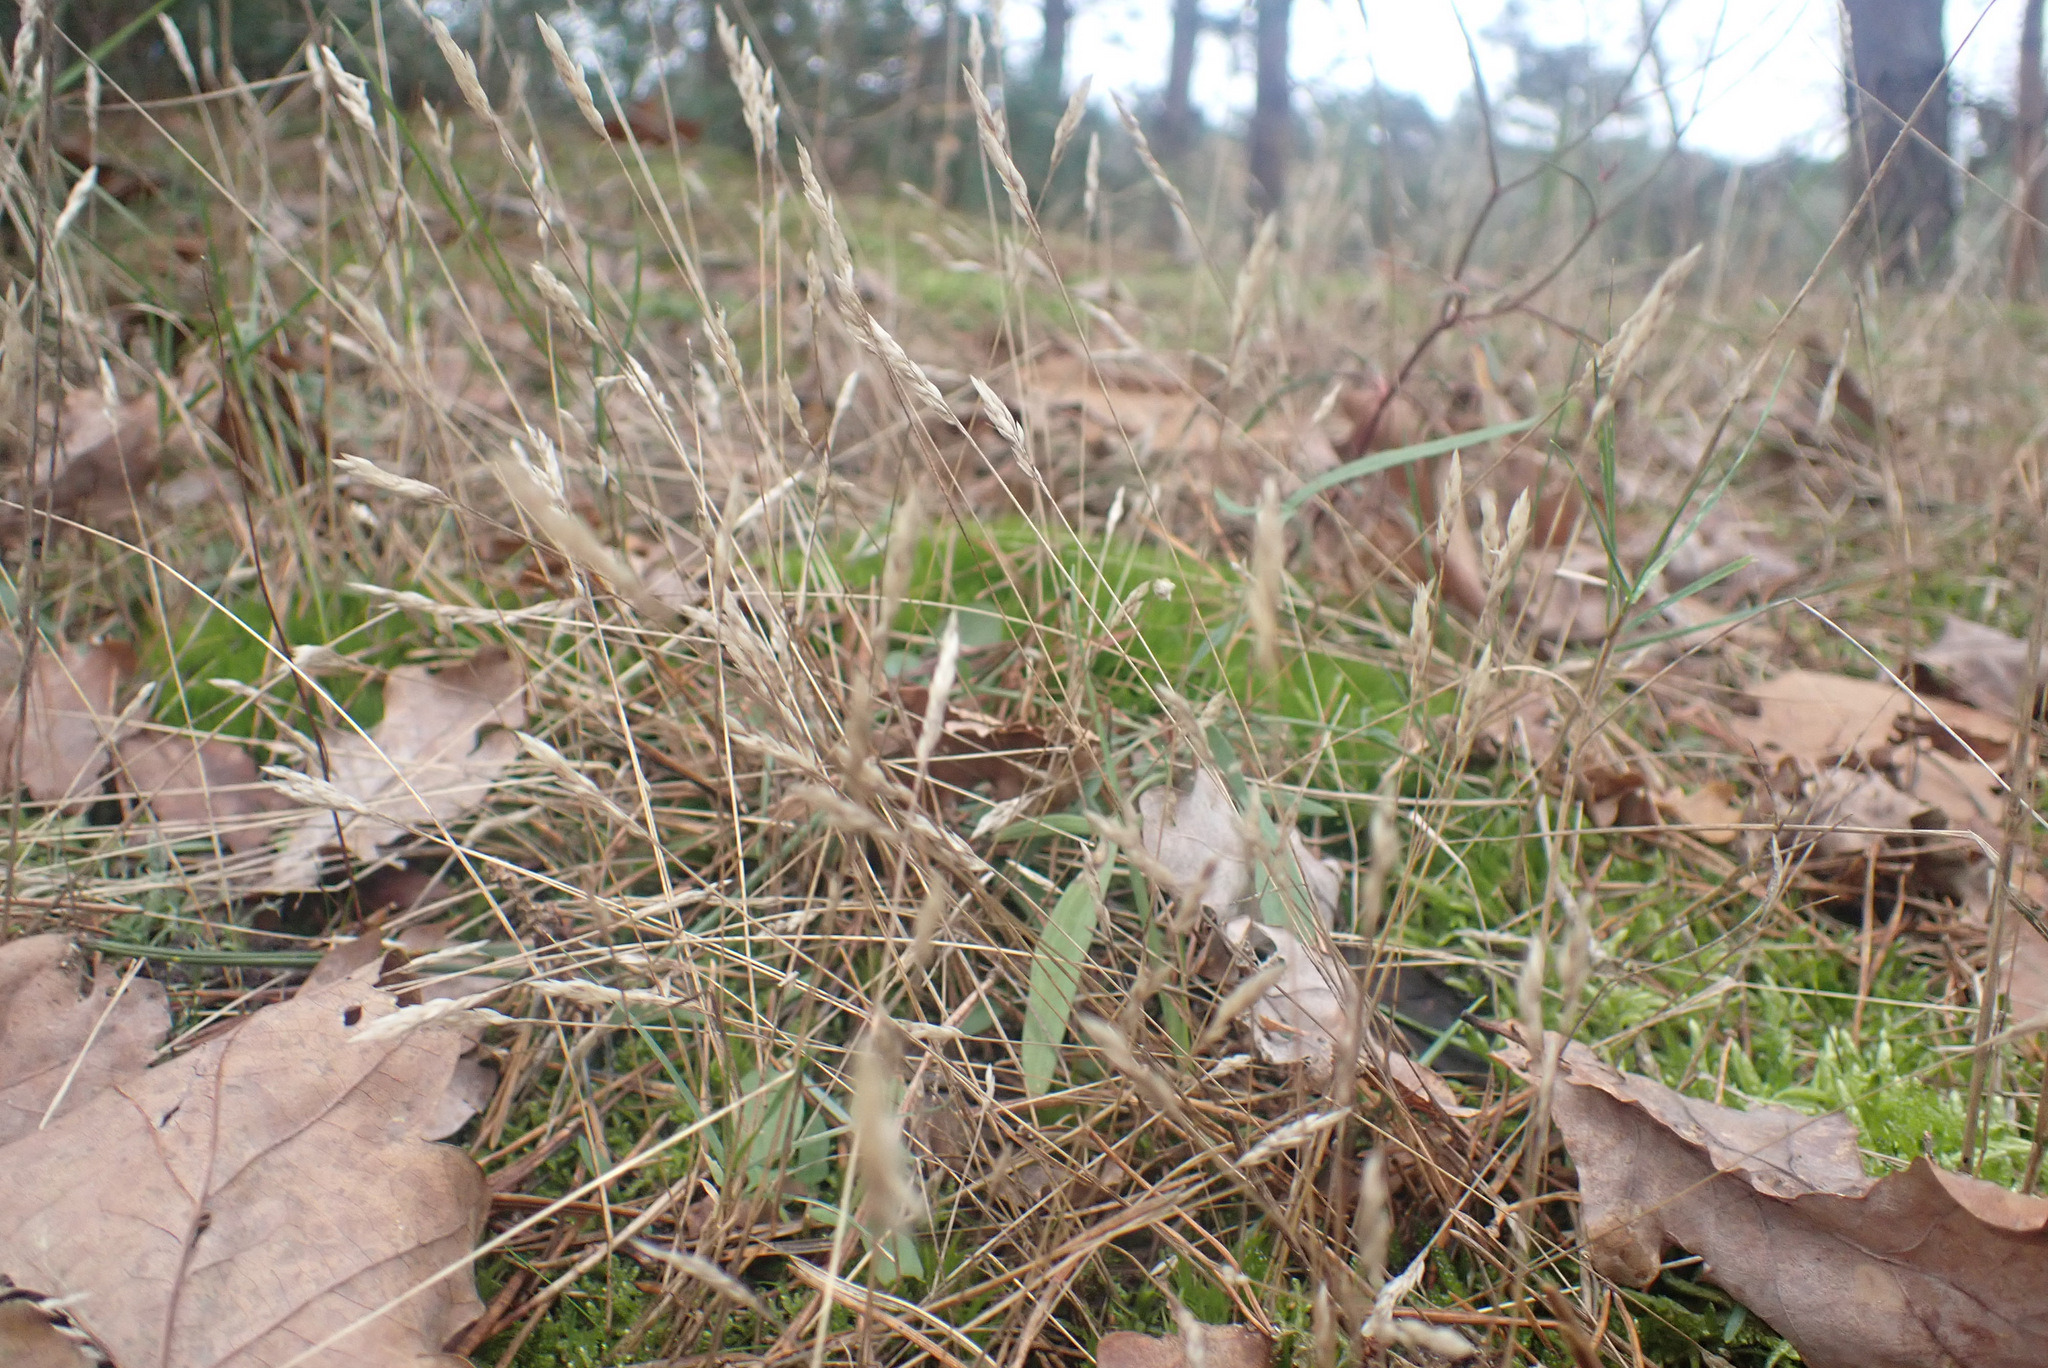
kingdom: Plantae
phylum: Tracheophyta
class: Liliopsida
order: Poales
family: Poaceae
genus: Aira
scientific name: Aira praecox
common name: Early hair-grass
